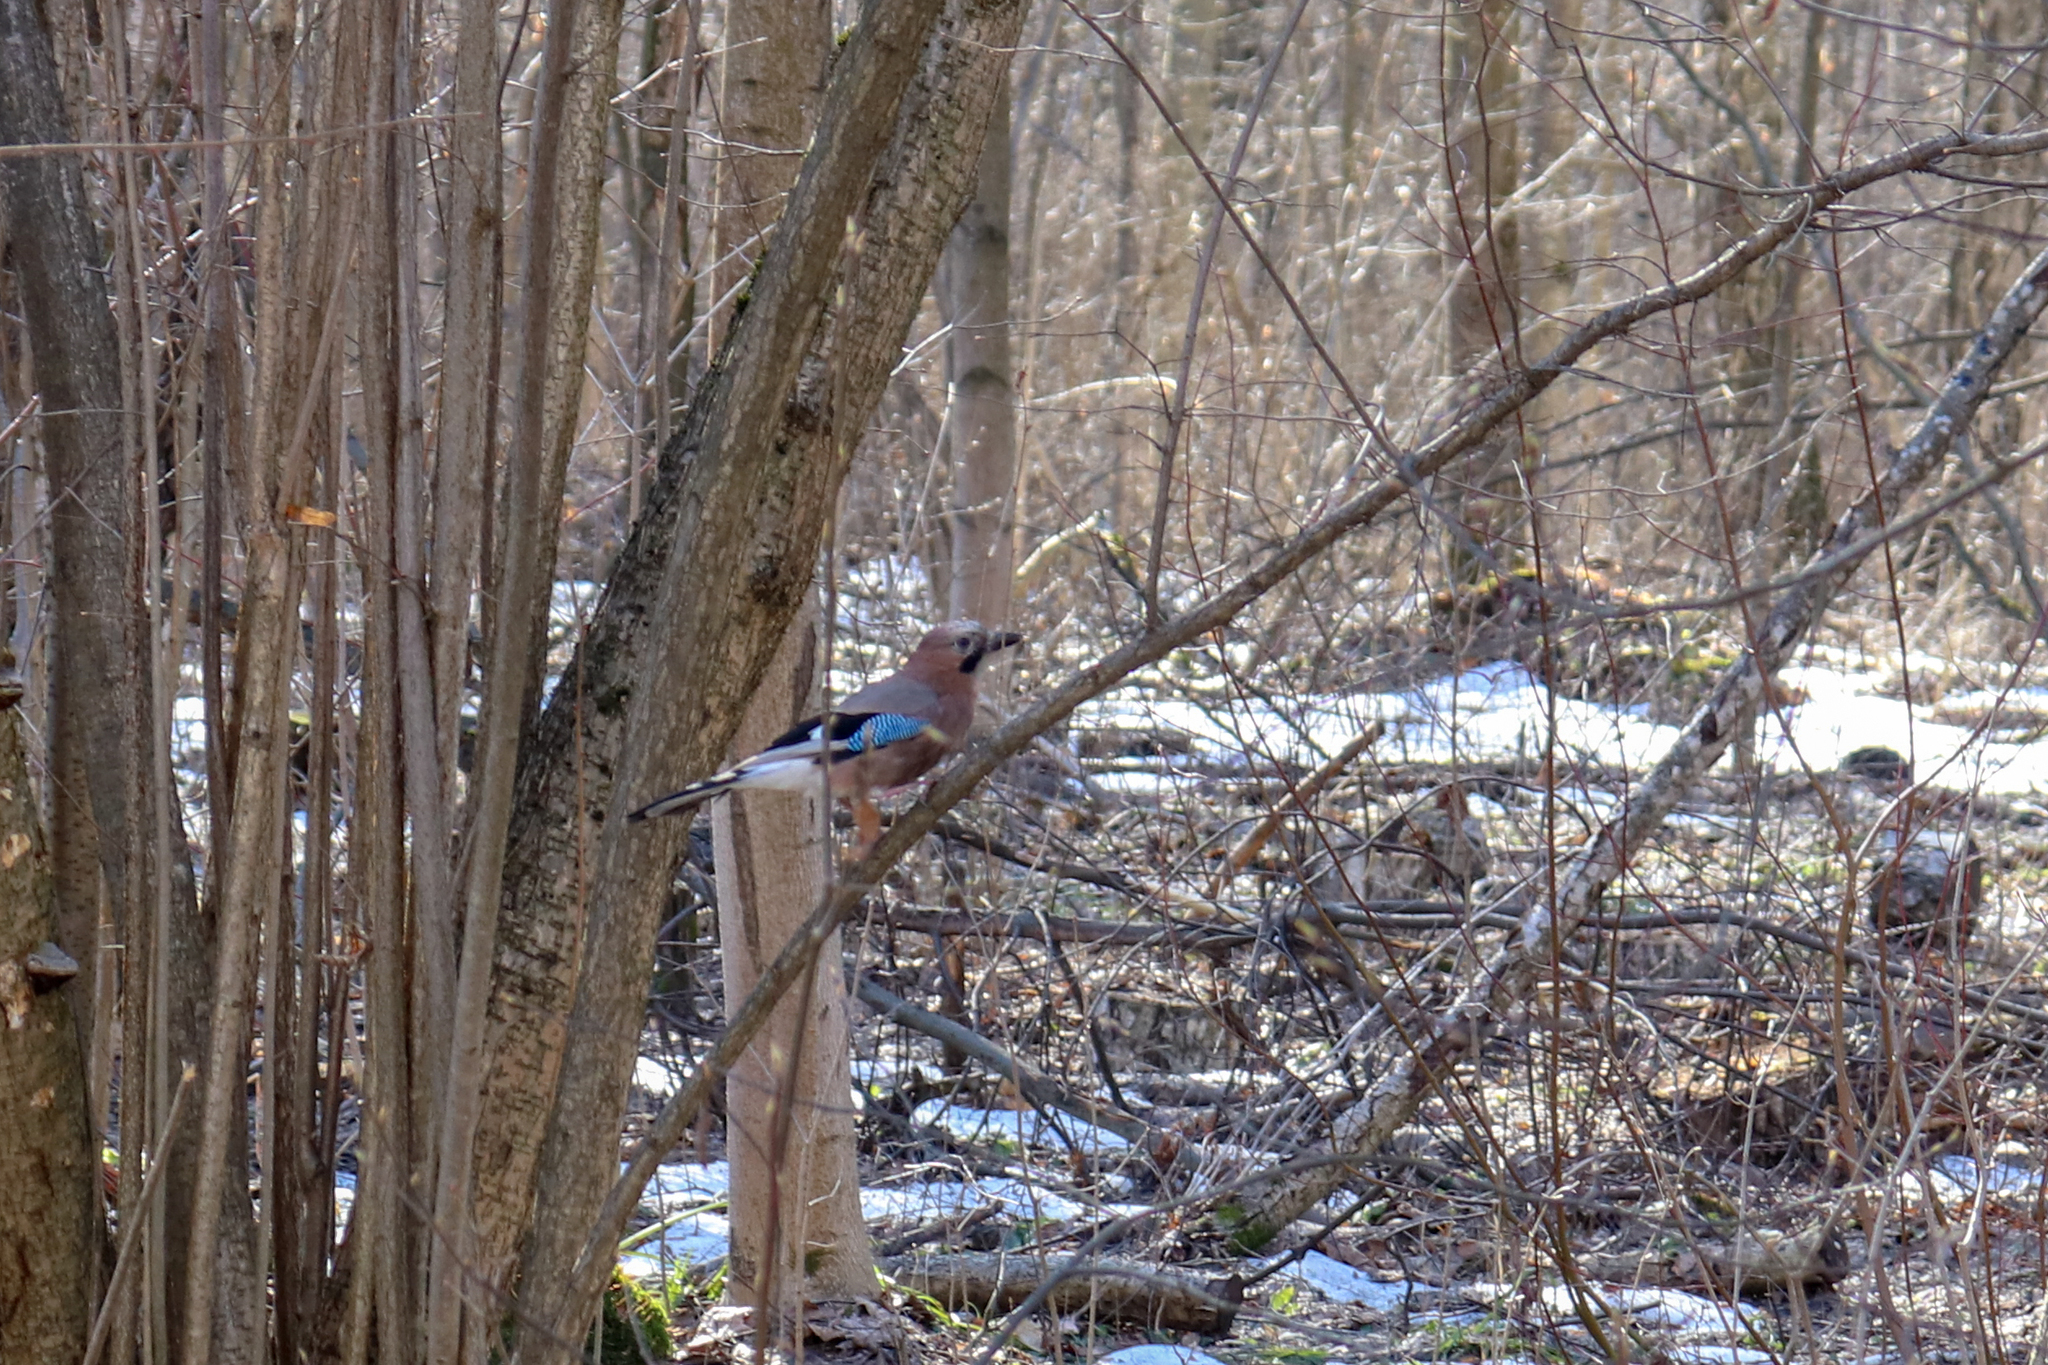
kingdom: Animalia
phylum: Chordata
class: Aves
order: Passeriformes
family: Corvidae
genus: Garrulus
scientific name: Garrulus glandarius
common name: Eurasian jay
